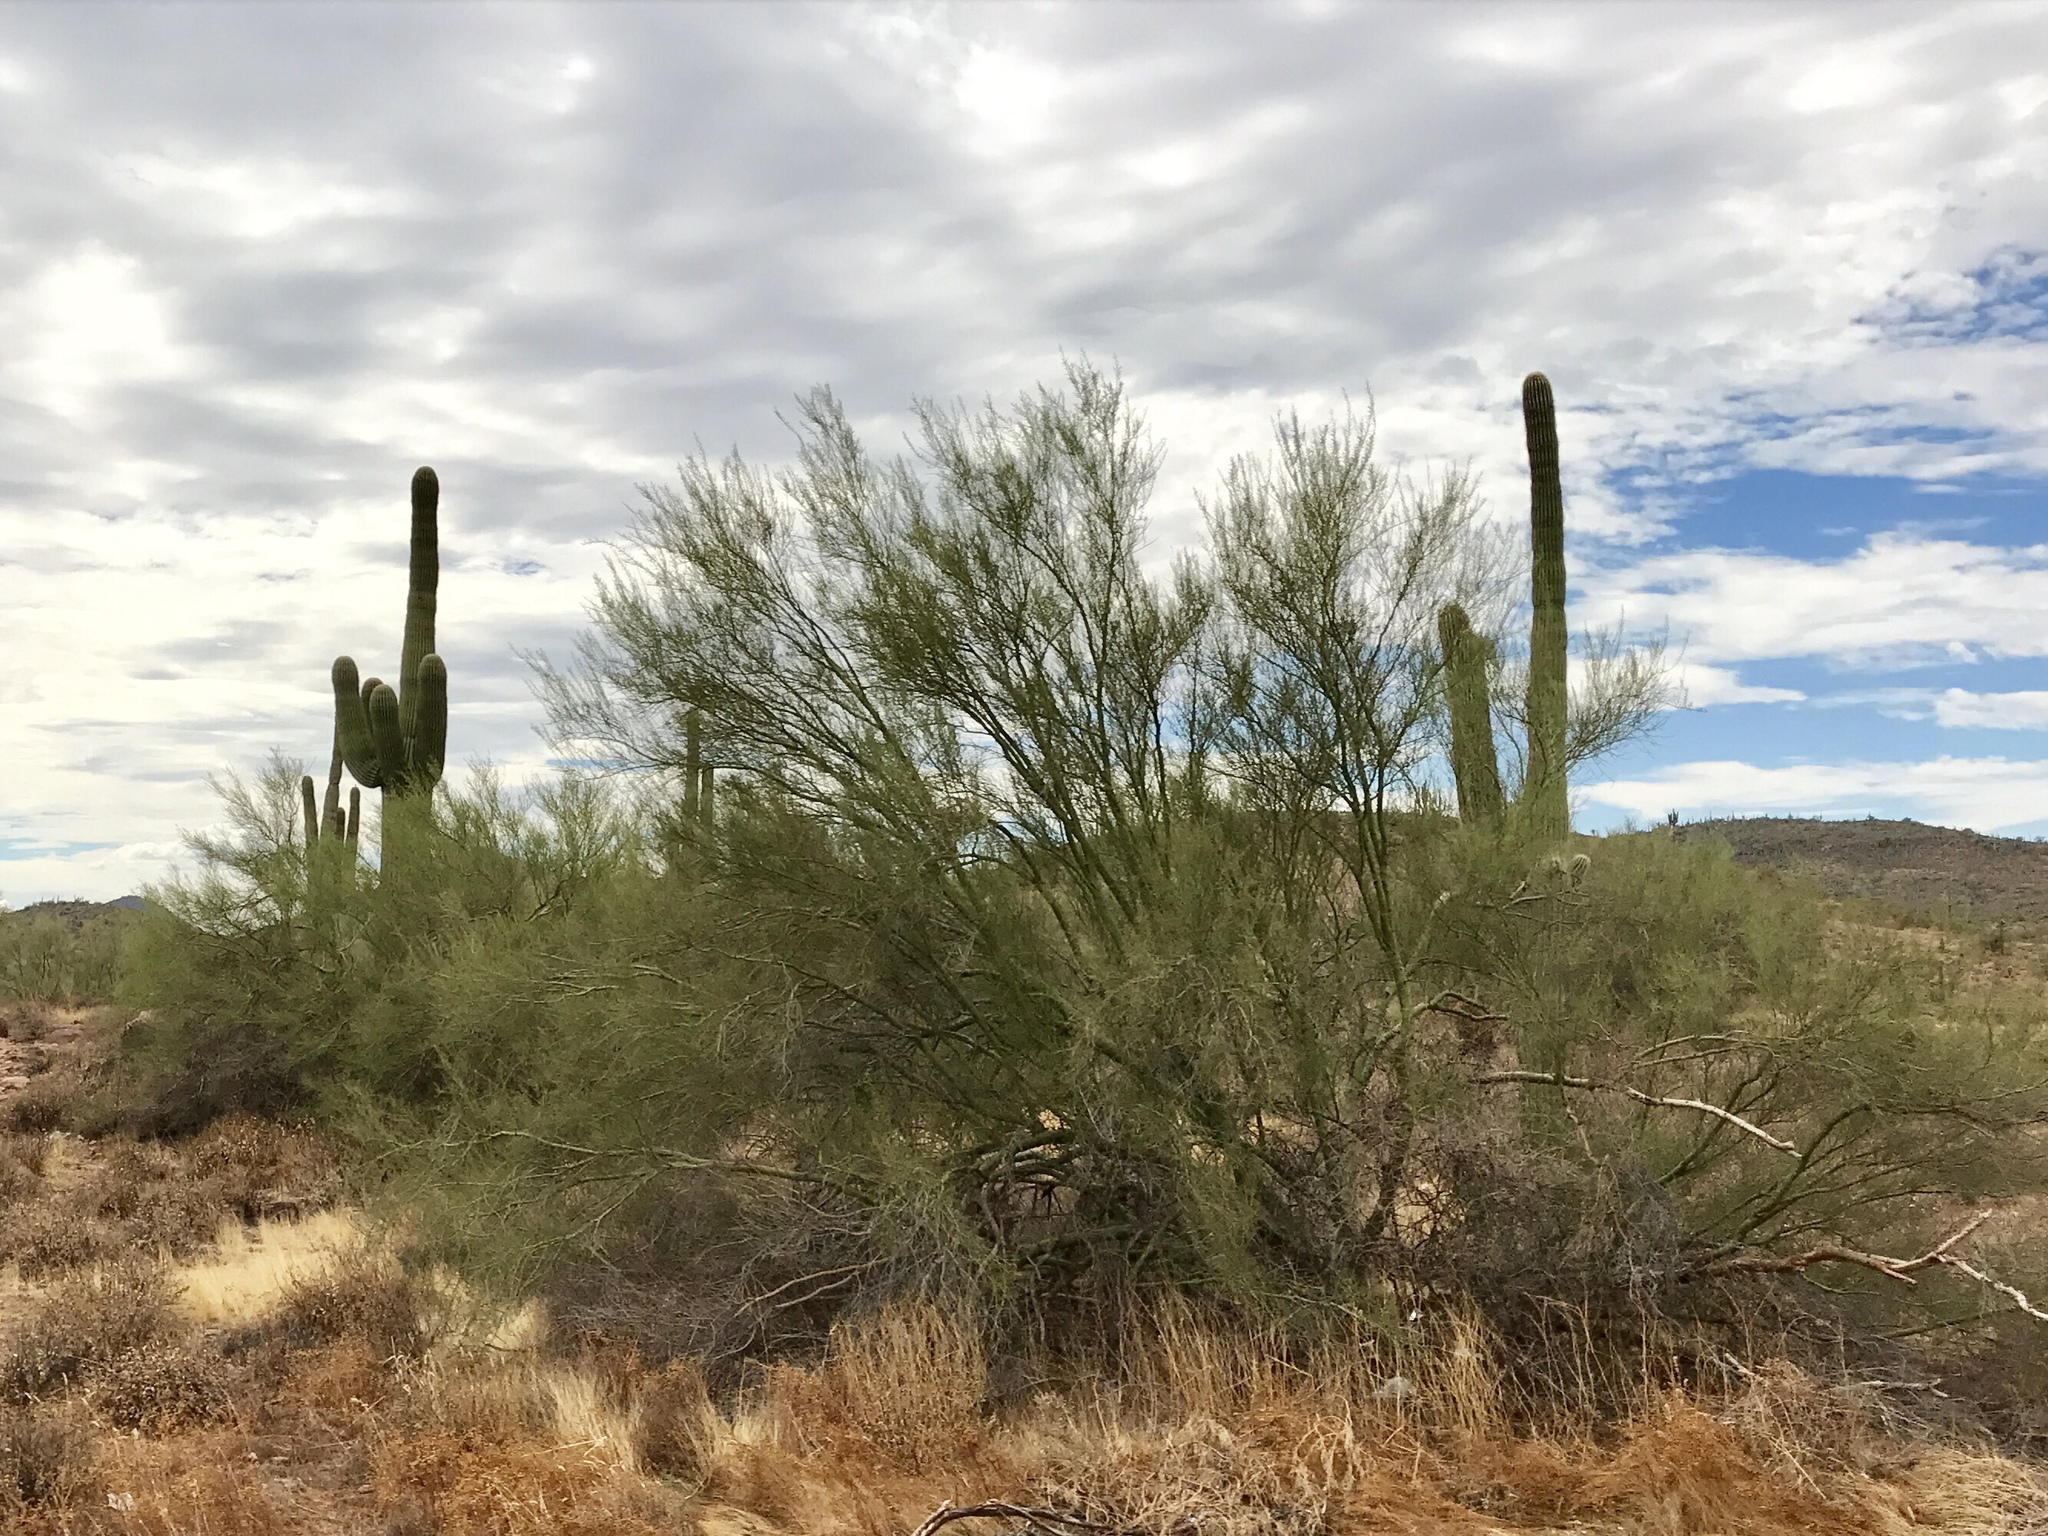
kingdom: Plantae
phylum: Tracheophyta
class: Magnoliopsida
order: Fabales
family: Fabaceae
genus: Parkinsonia
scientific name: Parkinsonia florida
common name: Blue paloverde
